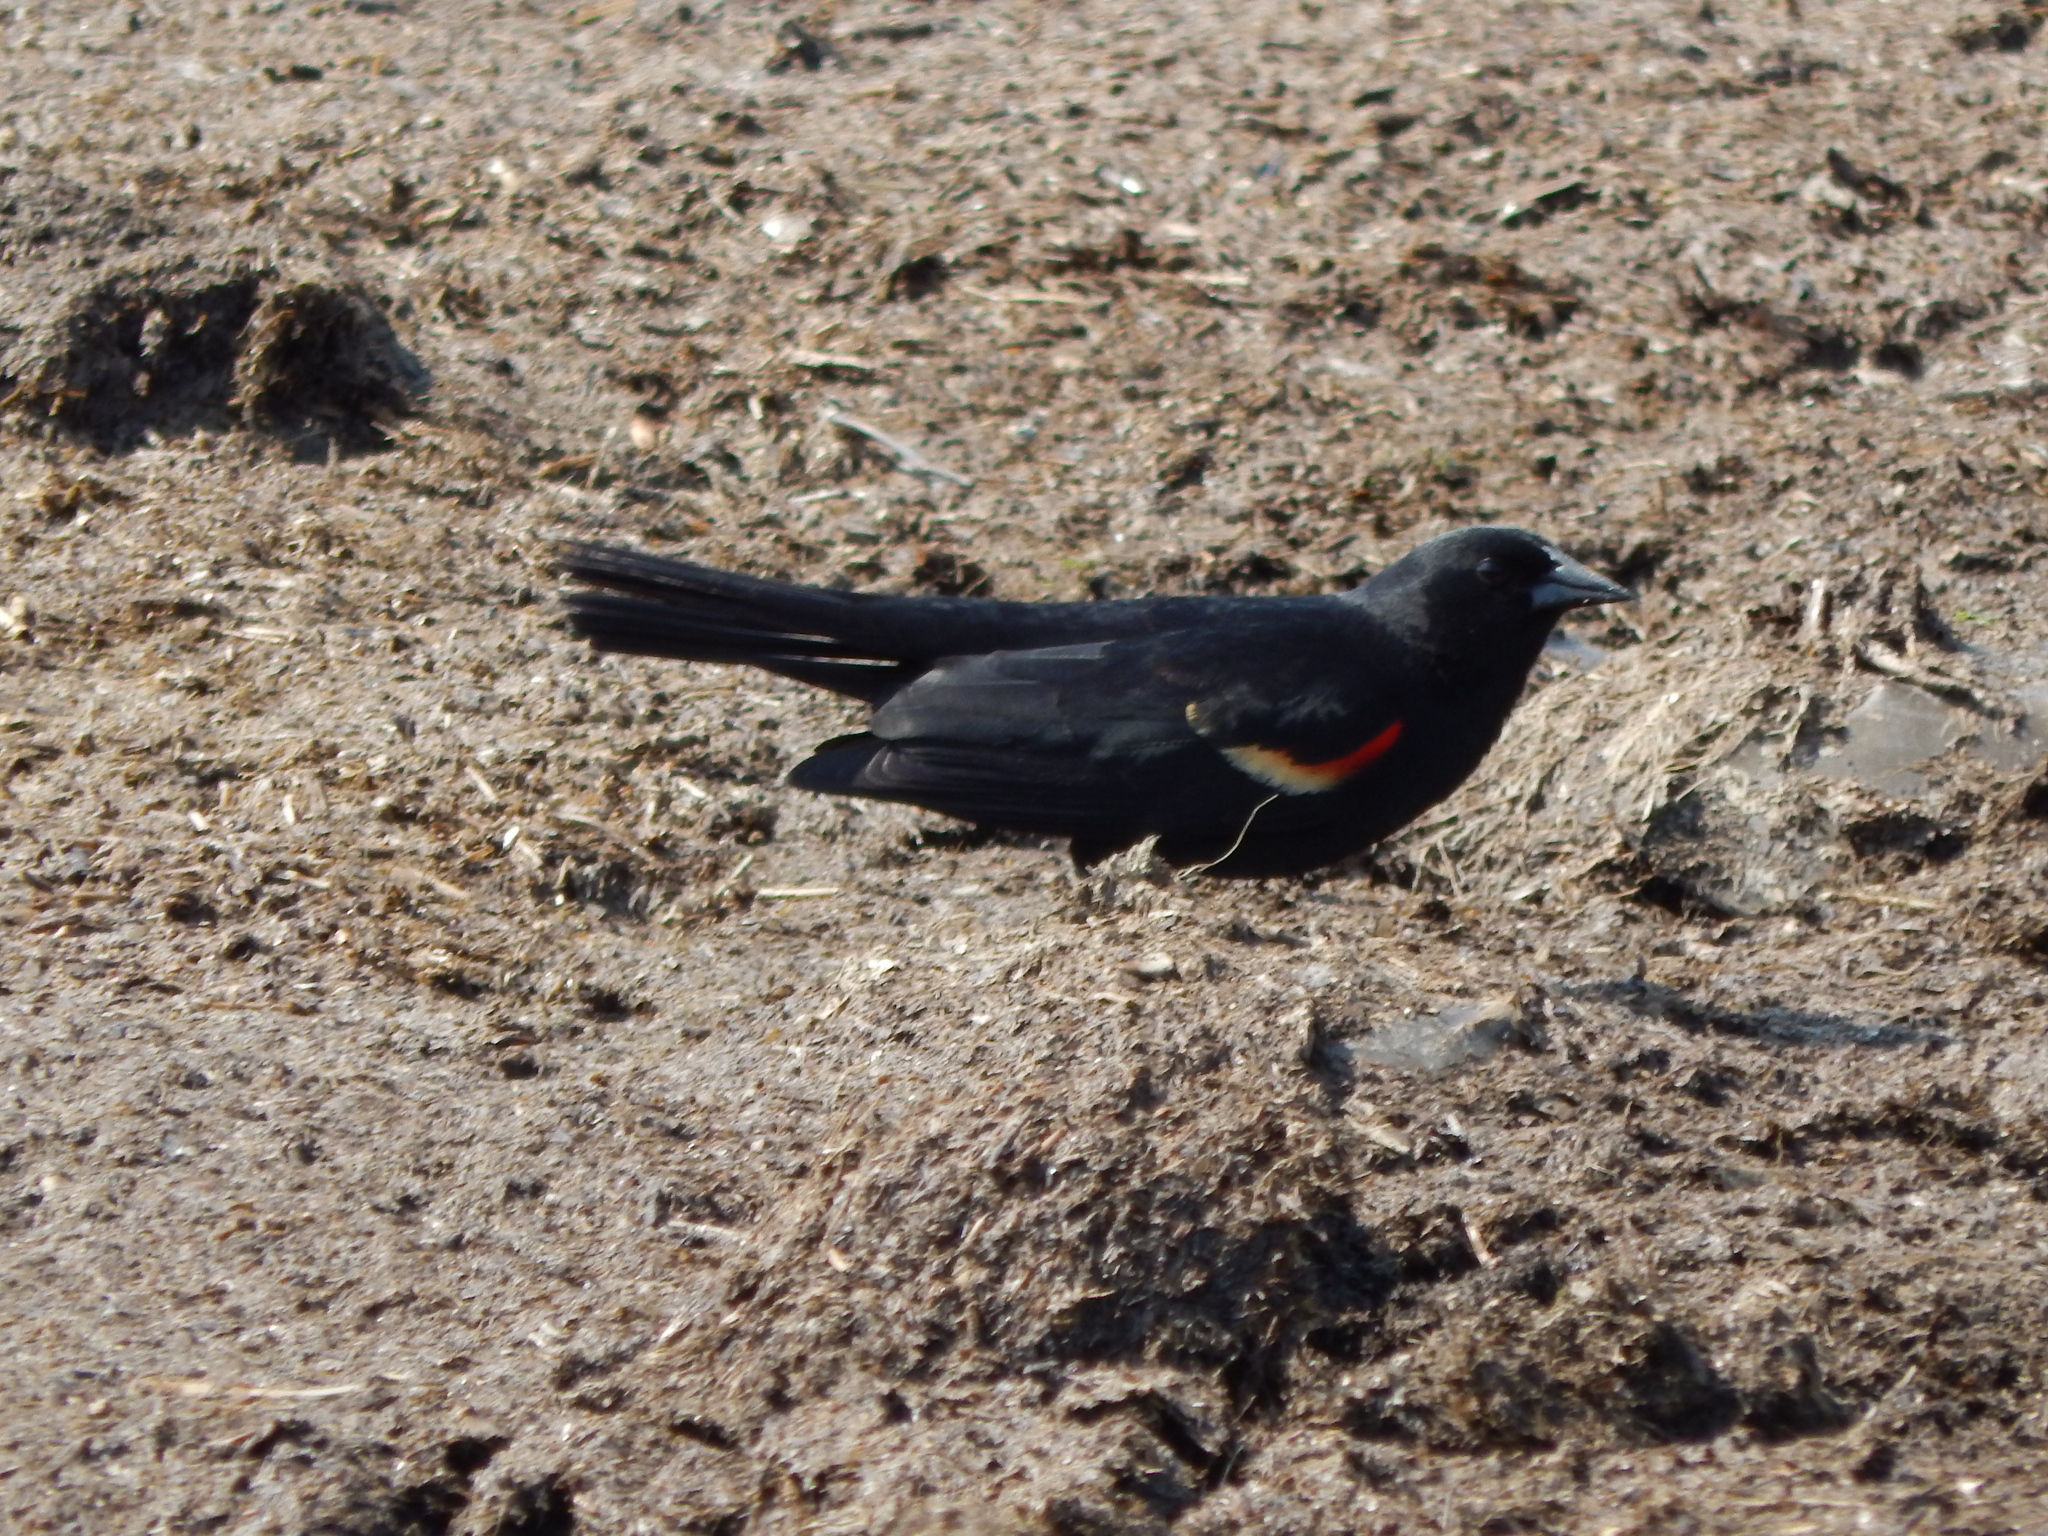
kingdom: Animalia
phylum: Chordata
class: Aves
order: Passeriformes
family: Icteridae
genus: Agelaius
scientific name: Agelaius phoeniceus
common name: Red-winged blackbird
